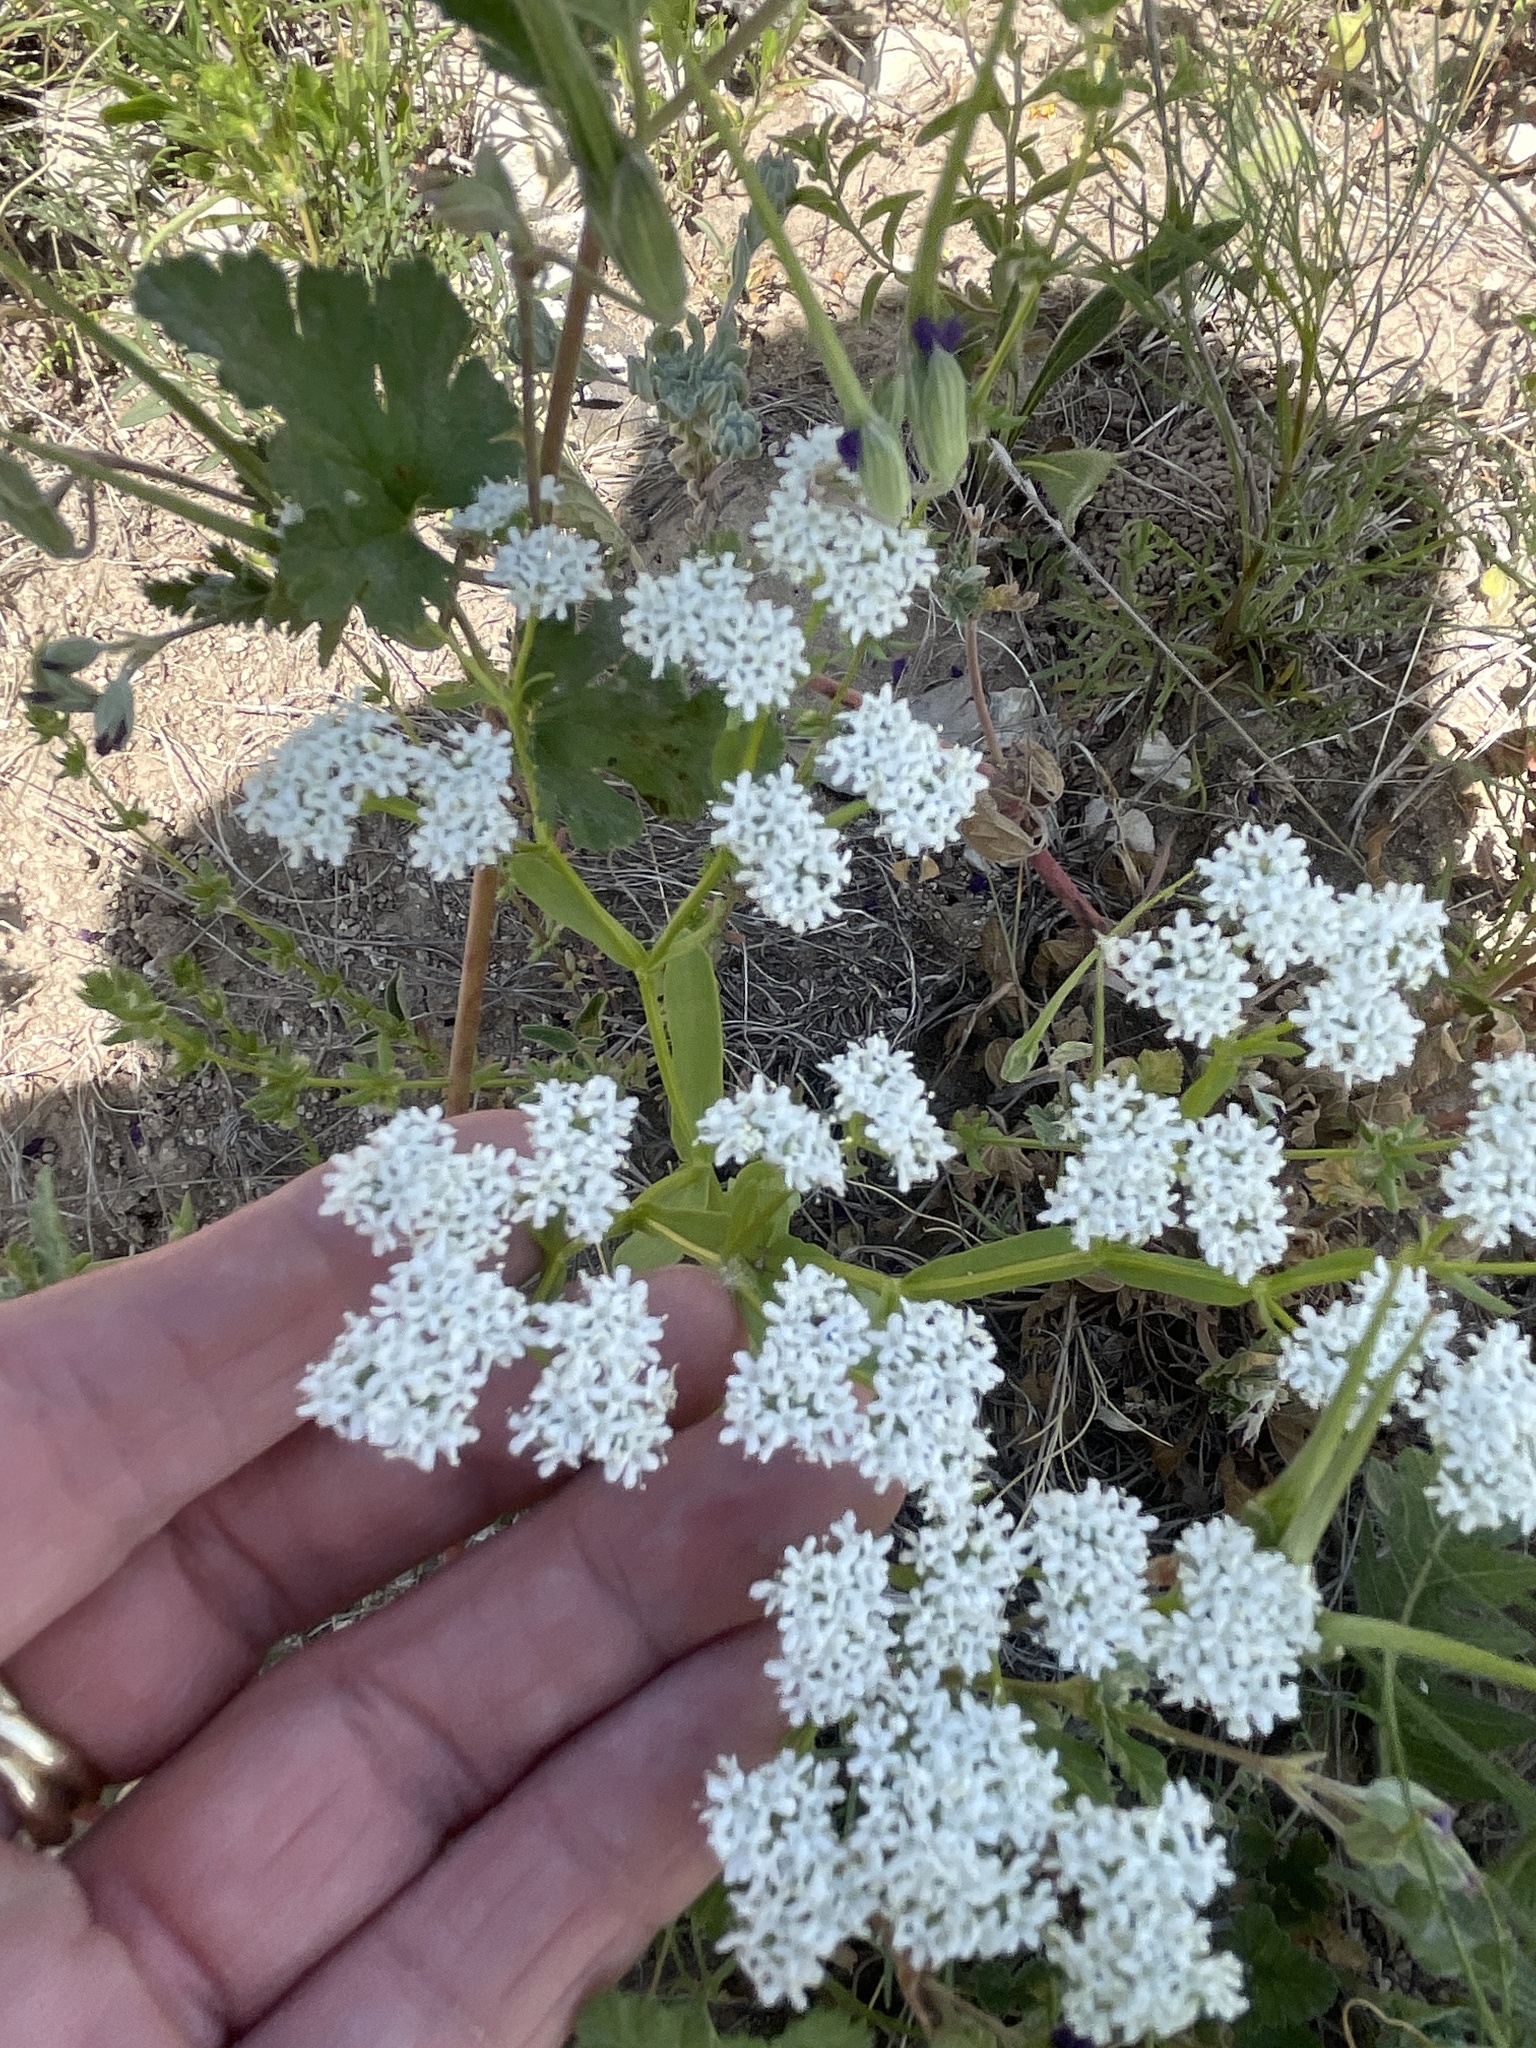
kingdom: Plantae
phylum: Tracheophyta
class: Magnoliopsida
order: Dipsacales
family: Caprifoliaceae
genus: Valerianella
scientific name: Valerianella amarella
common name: Hariy cornsalad
